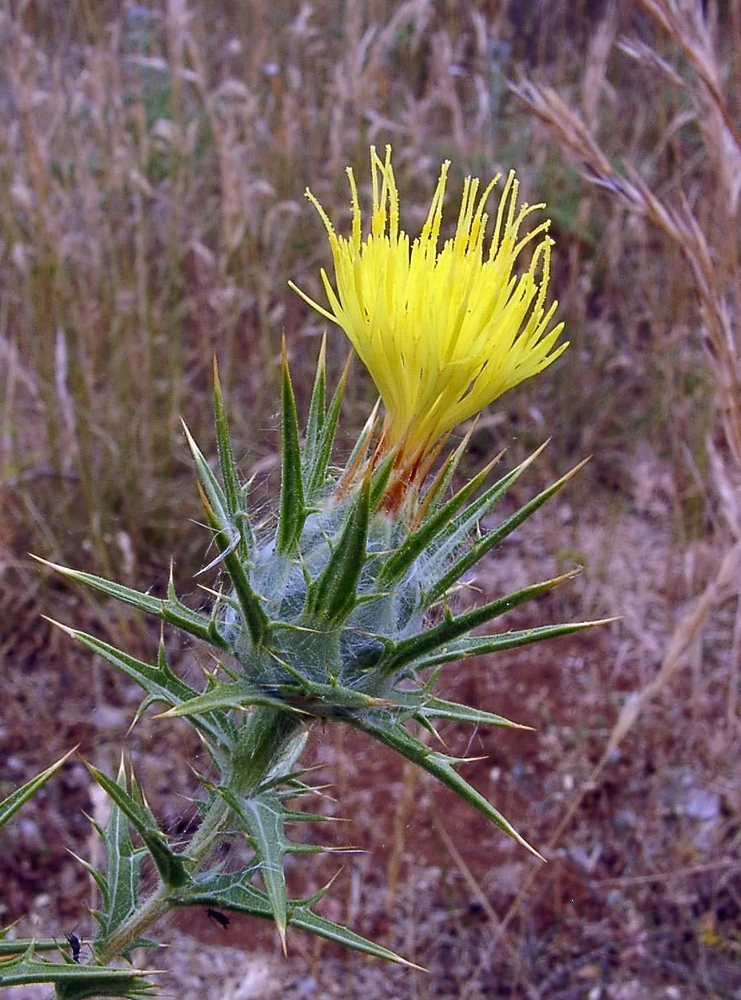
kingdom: Plantae
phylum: Tracheophyta
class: Magnoliopsida
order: Asterales
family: Asteraceae
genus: Carthamus
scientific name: Carthamus lanatus
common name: Downy safflower
